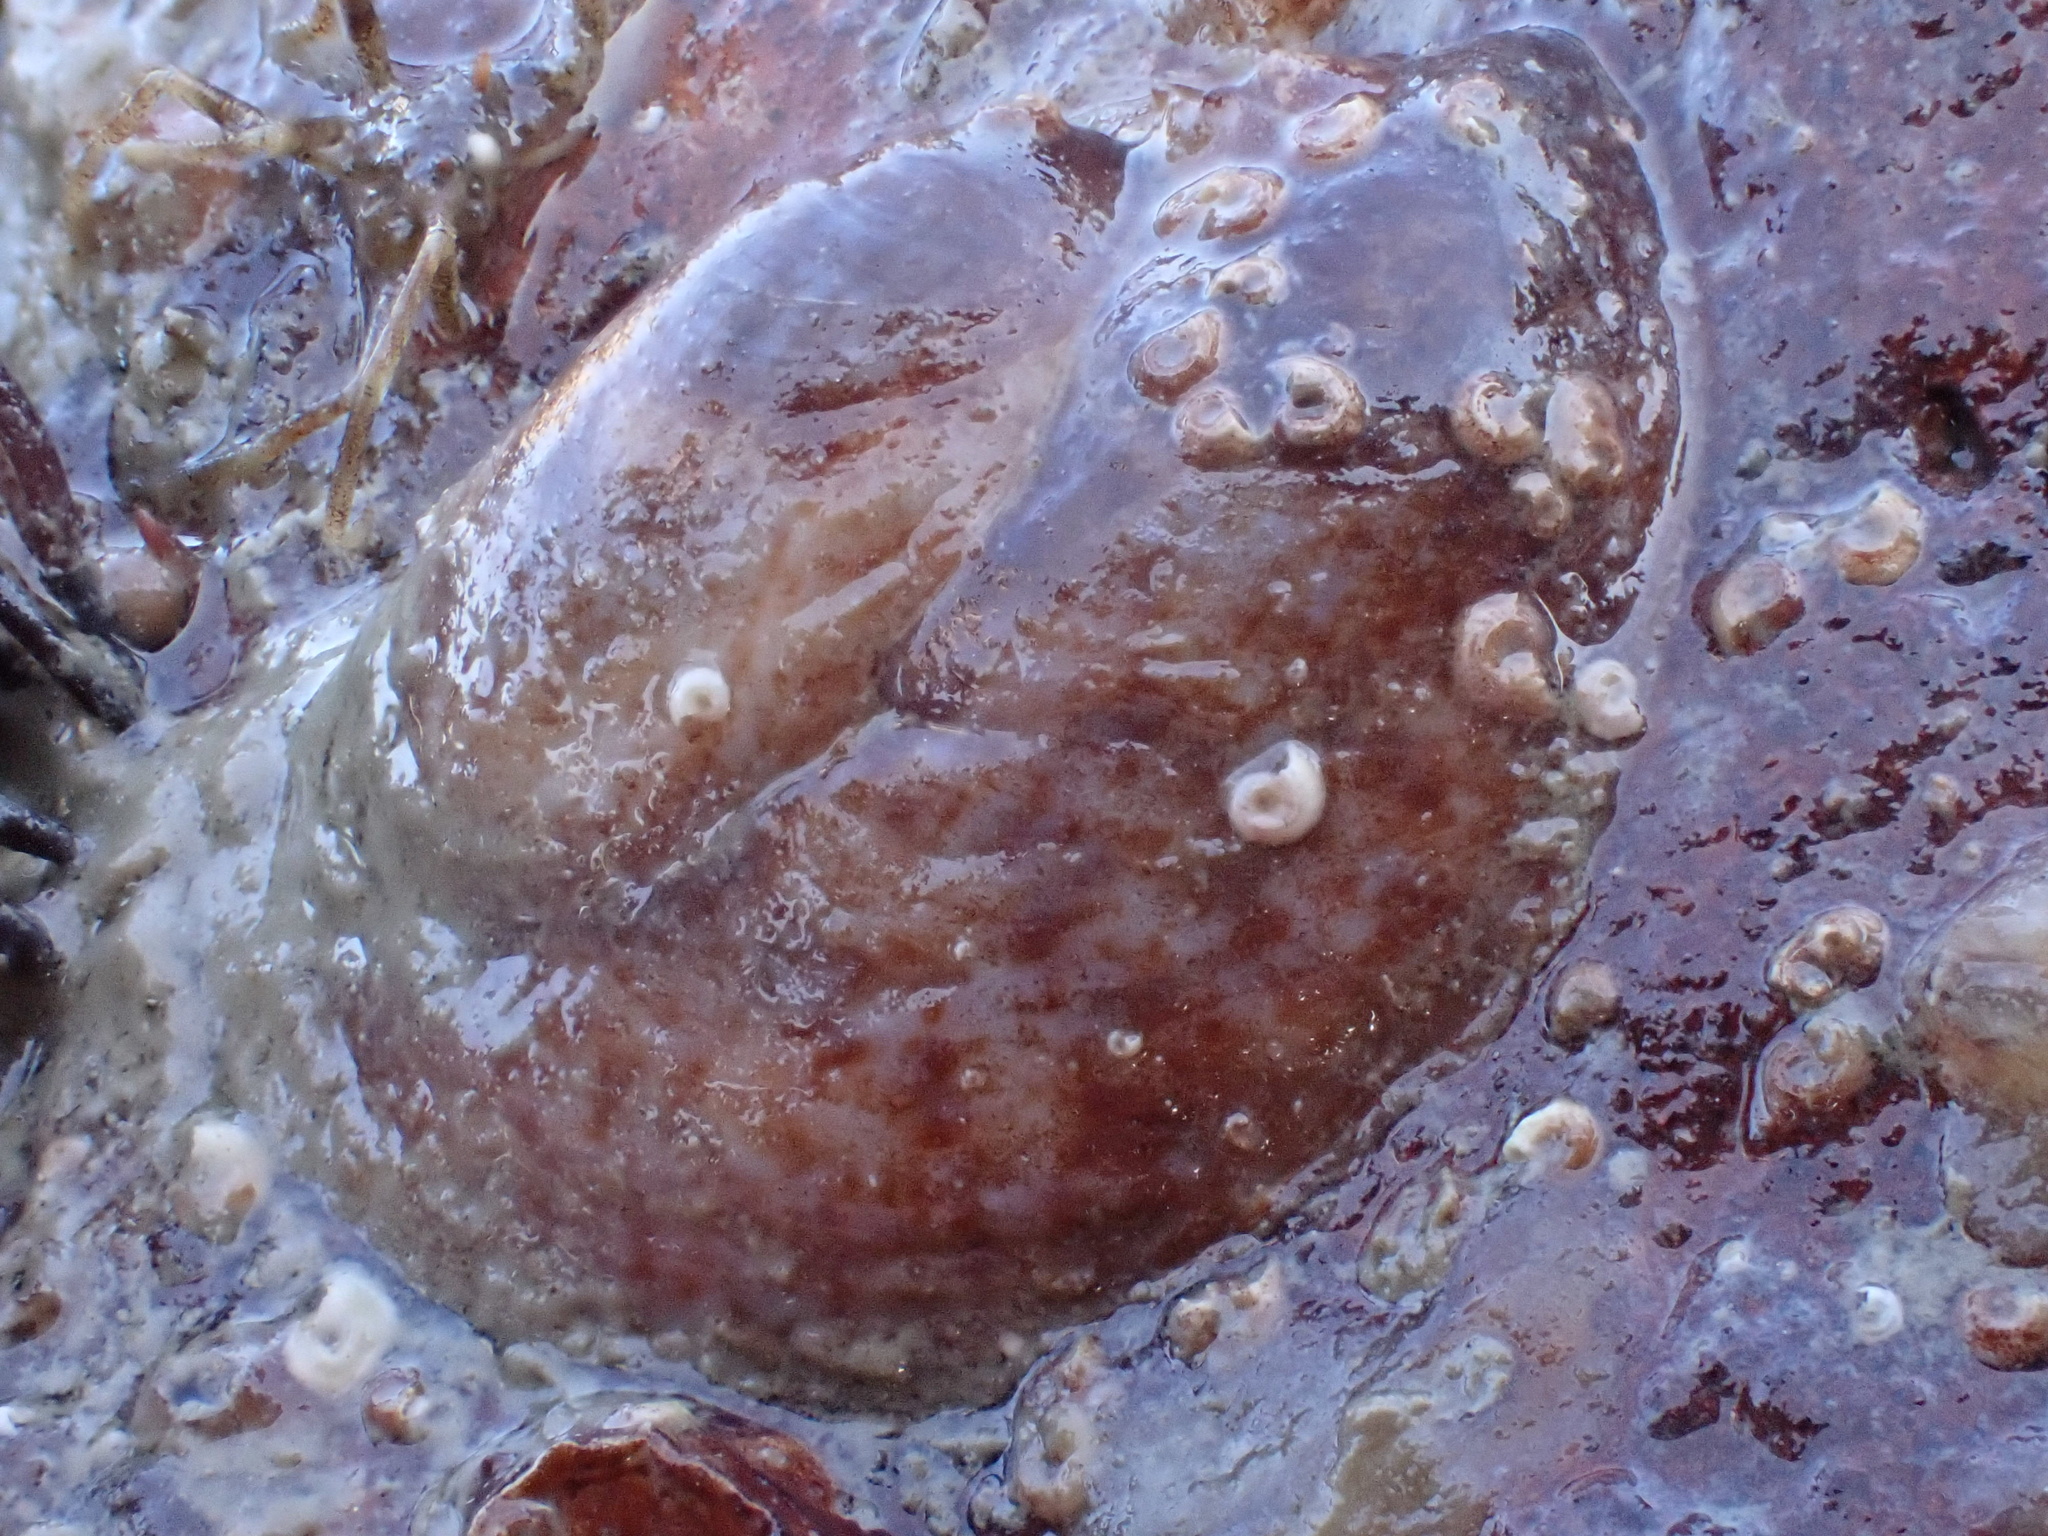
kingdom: Animalia
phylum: Mollusca
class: Gastropoda
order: Littorinimorpha
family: Calyptraeidae
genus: Crepidula
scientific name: Crepidula fornicata
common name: Slipper limpet
